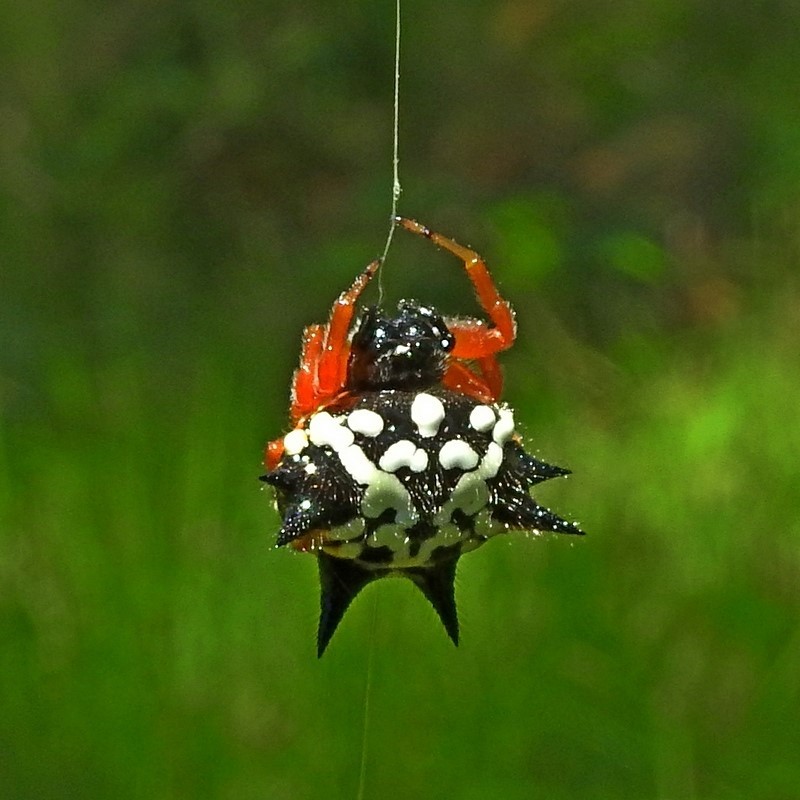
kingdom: Animalia
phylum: Arthropoda
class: Arachnida
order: Araneae
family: Araneidae
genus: Austracantha
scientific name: Austracantha minax
